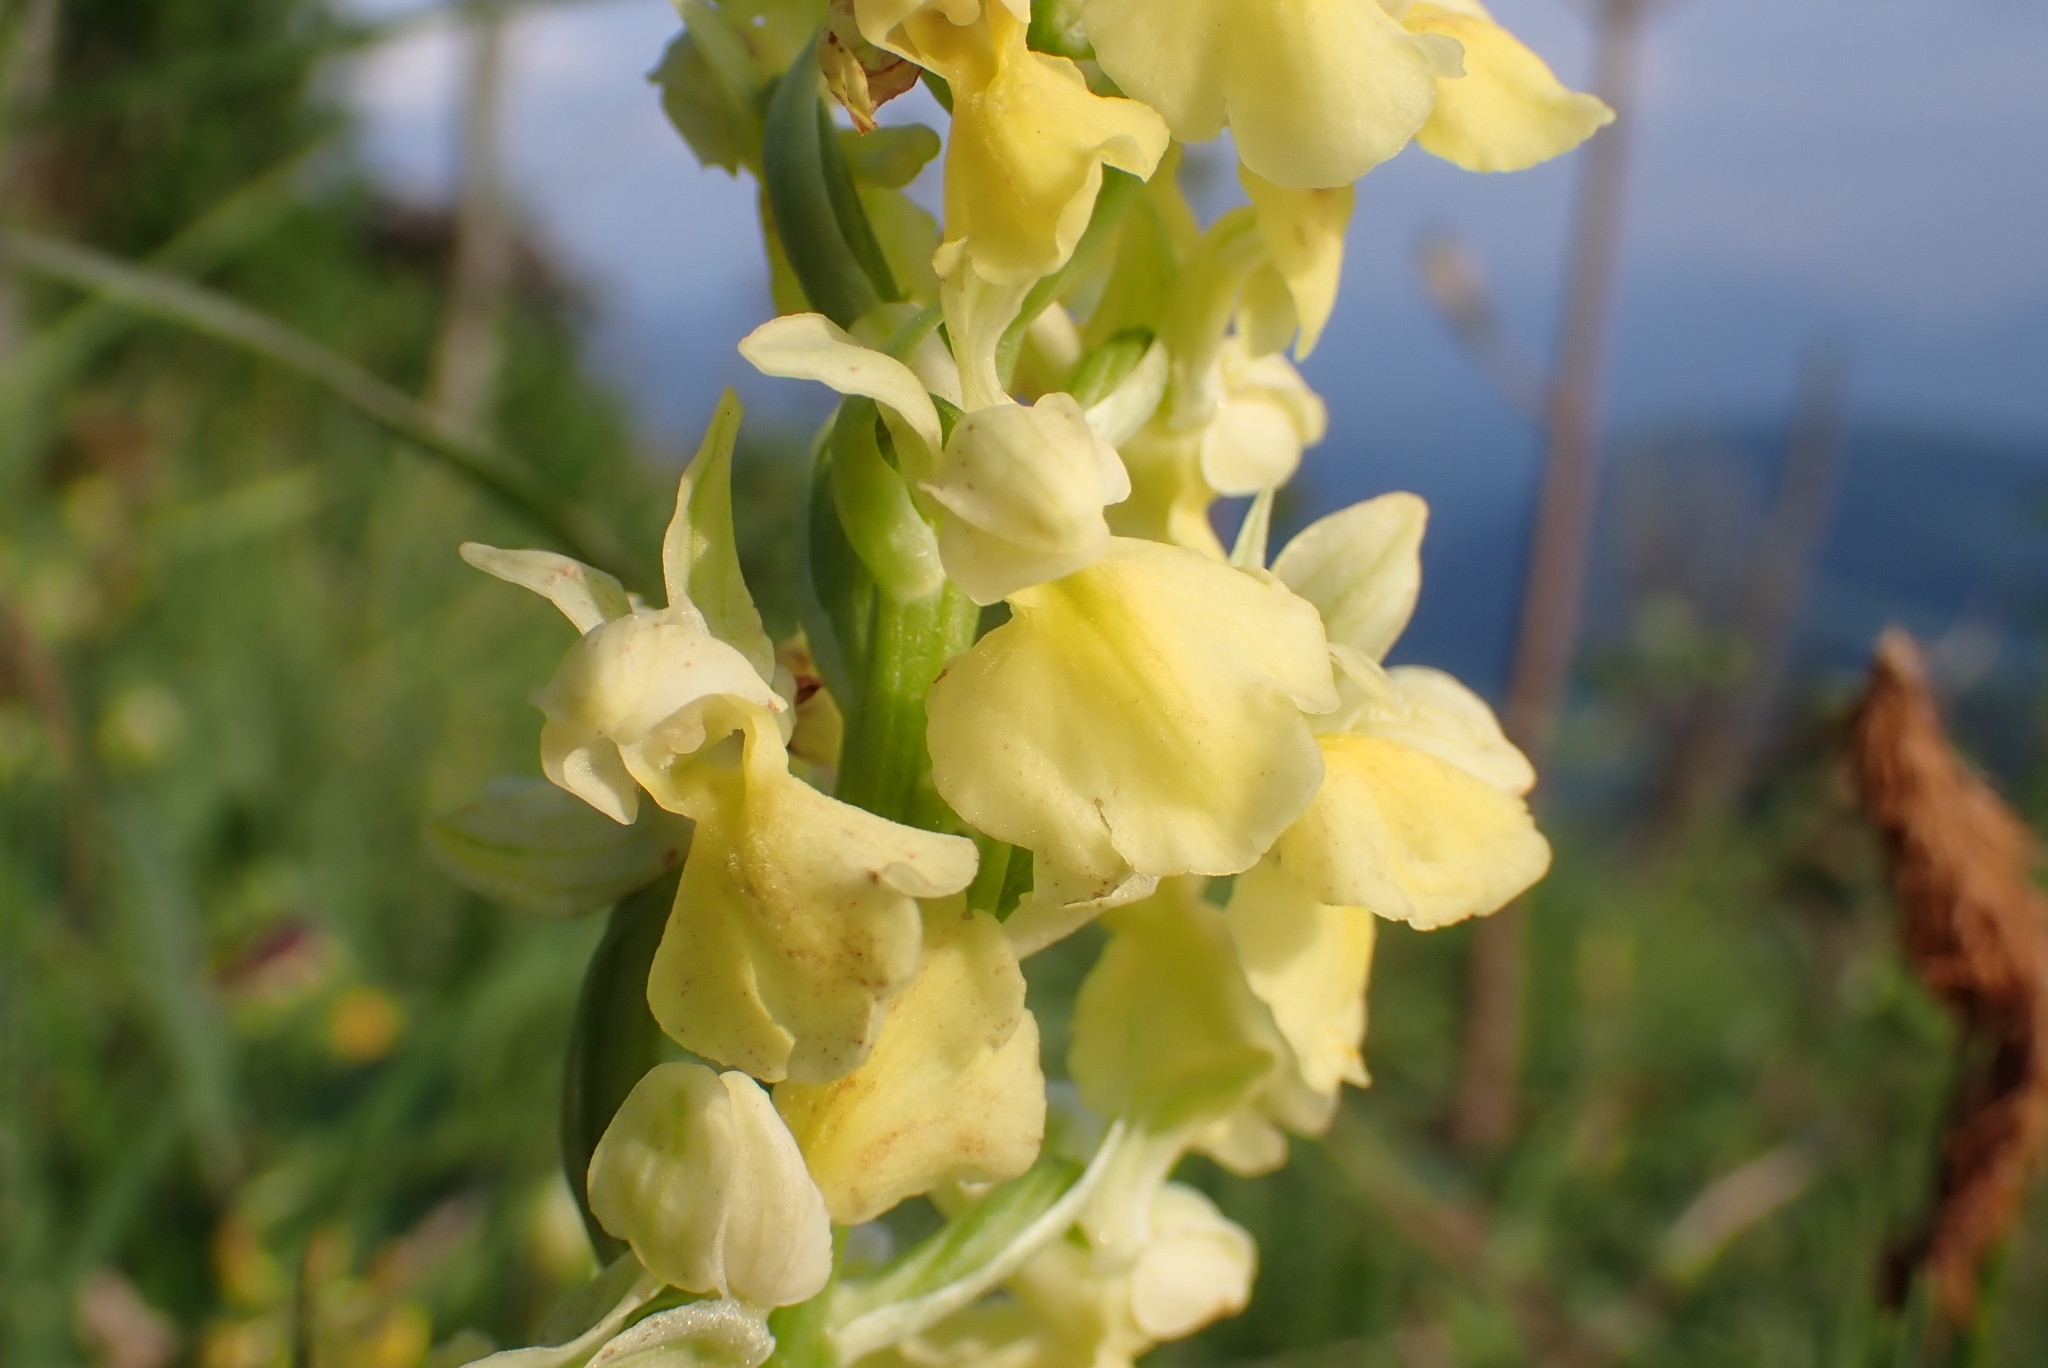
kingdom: Plantae
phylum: Tracheophyta
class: Liliopsida
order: Asparagales
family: Orchidaceae
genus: Orchis
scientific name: Orchis pallens
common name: Pale-flowered orchid
